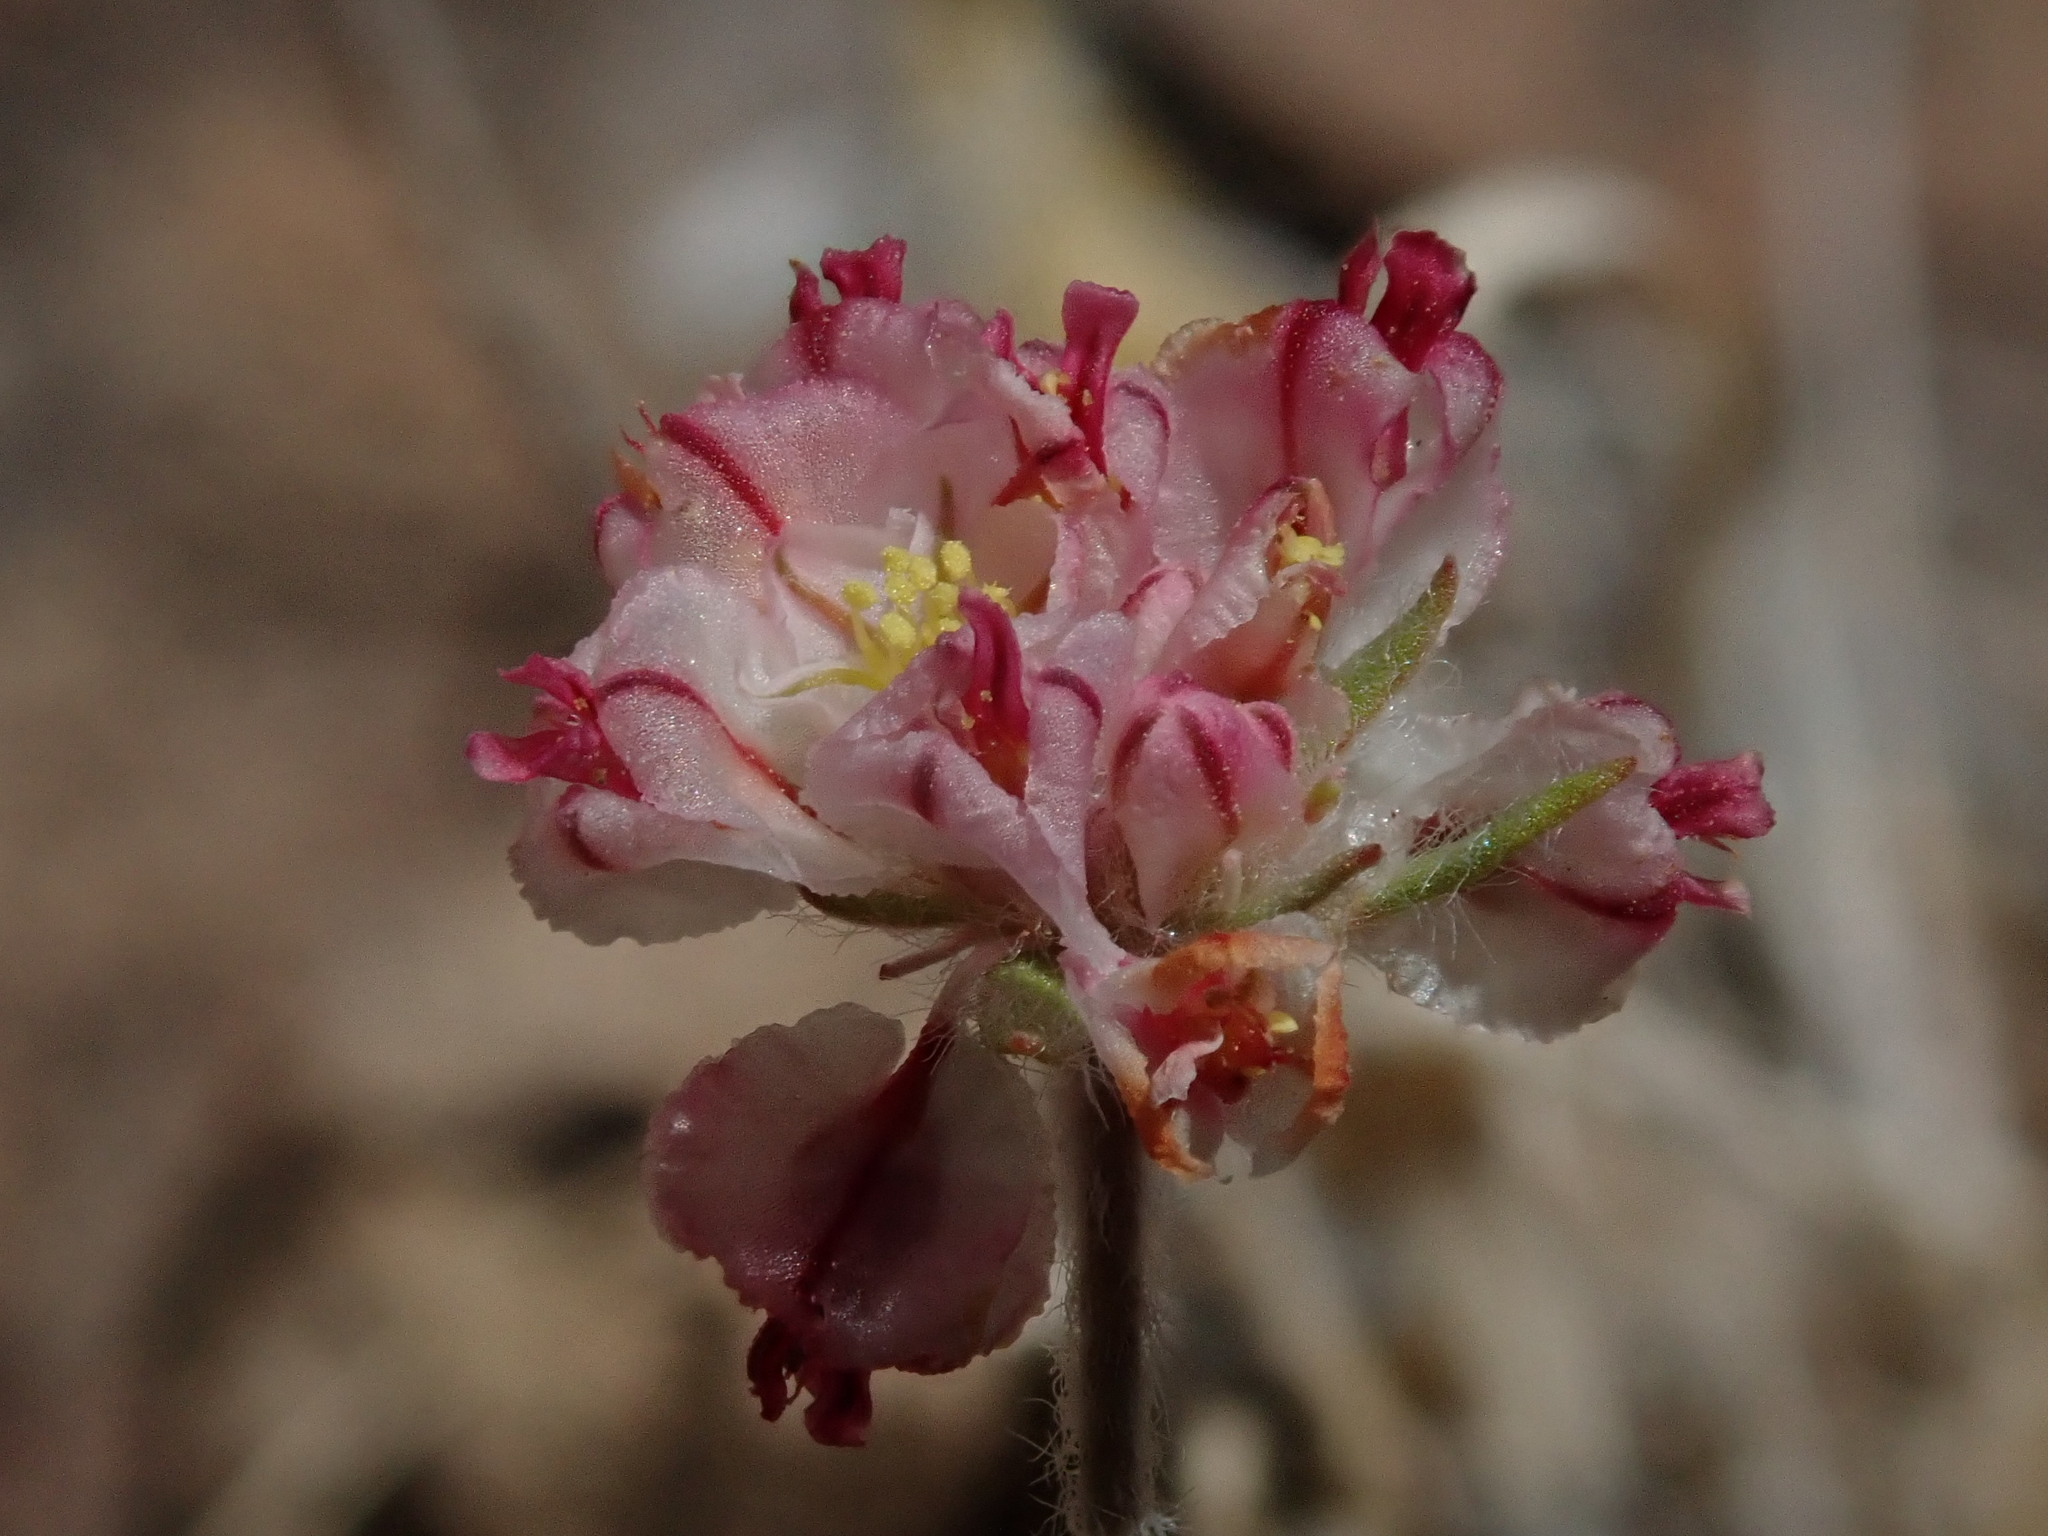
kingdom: Plantae
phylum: Tracheophyta
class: Magnoliopsida
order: Caryophyllales
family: Polygonaceae
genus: Eriogonum
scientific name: Eriogonum abertianum
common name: Abert's wild buckwheat
